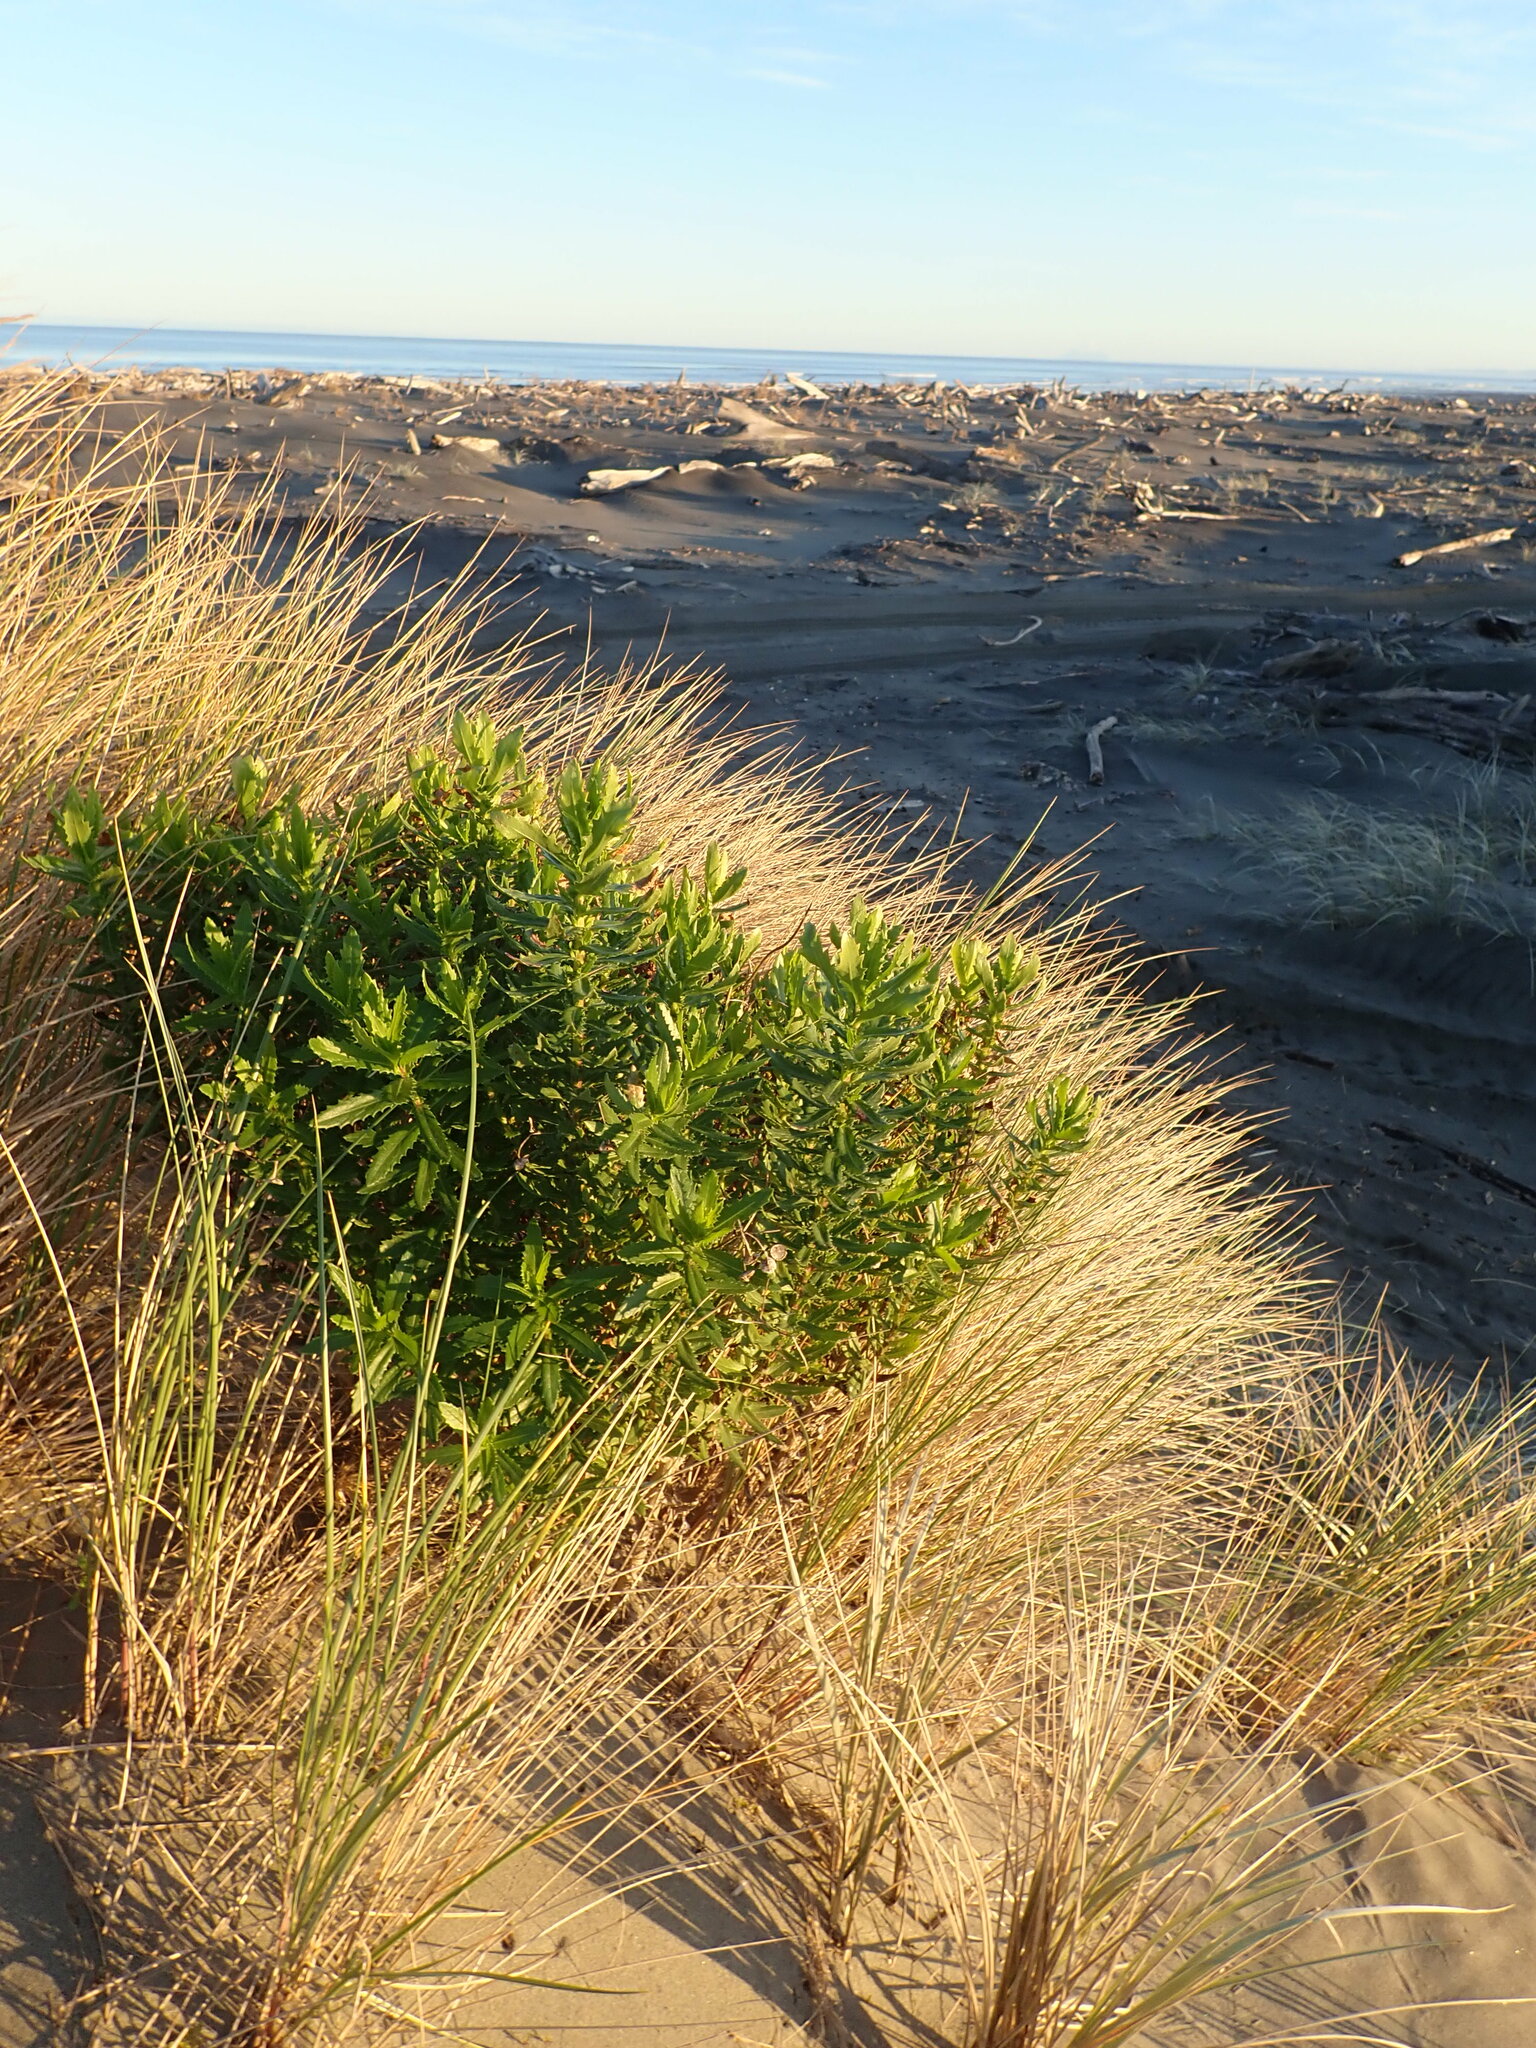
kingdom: Plantae
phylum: Tracheophyta
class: Magnoliopsida
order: Asterales
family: Asteraceae
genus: Senecio
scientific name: Senecio glastifolius
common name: Woad-leaved ragwort
